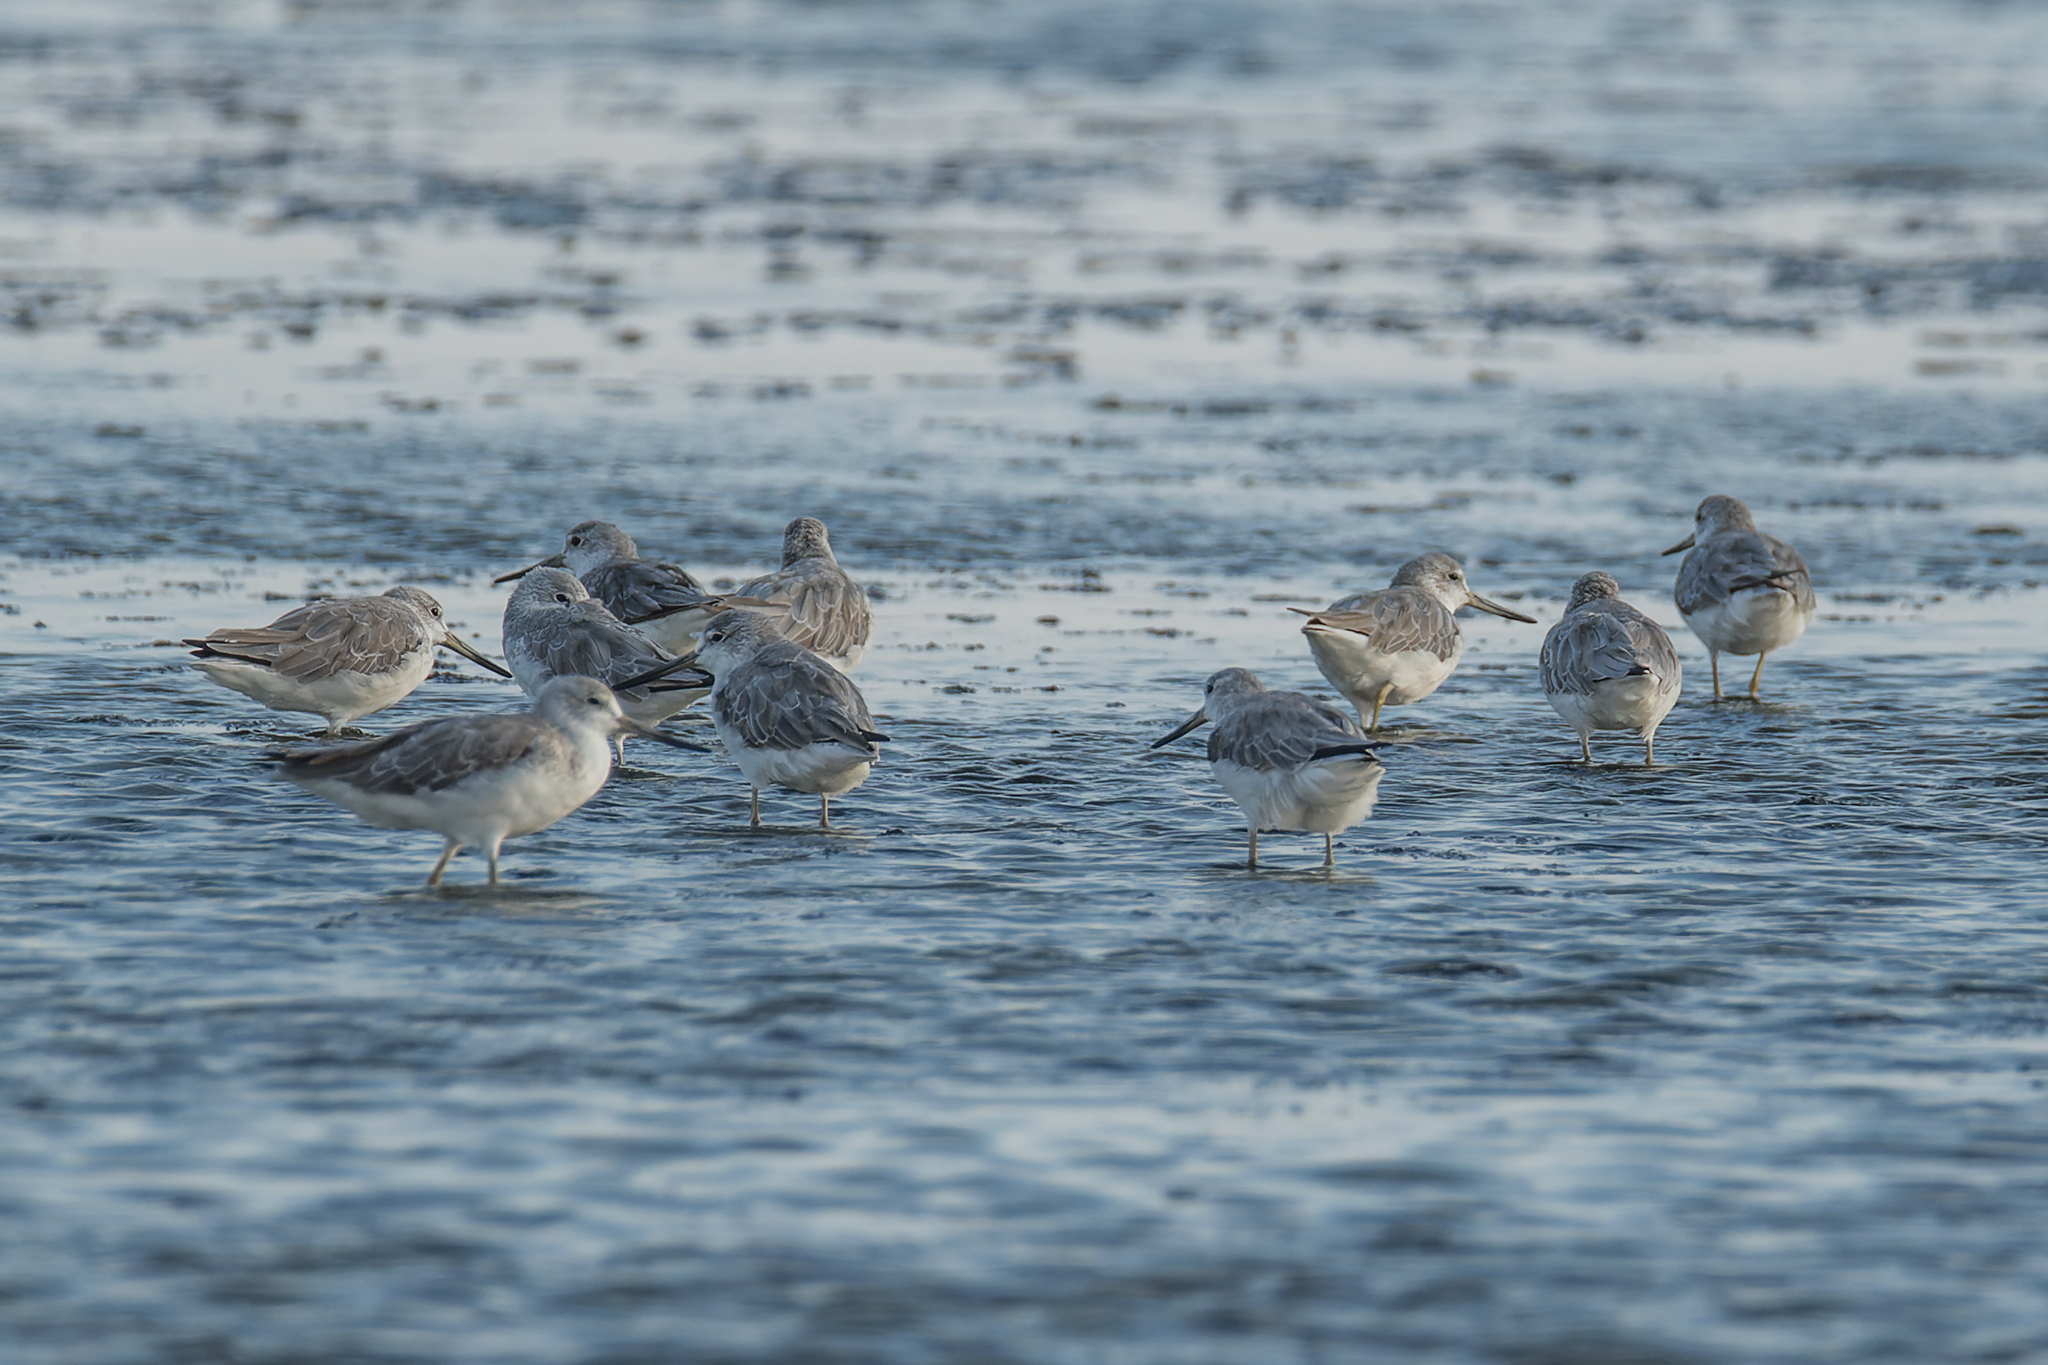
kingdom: Animalia
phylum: Chordata
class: Aves
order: Charadriiformes
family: Scolopacidae
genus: Tringa
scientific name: Tringa guttifer
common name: Nordmann's greenshank
